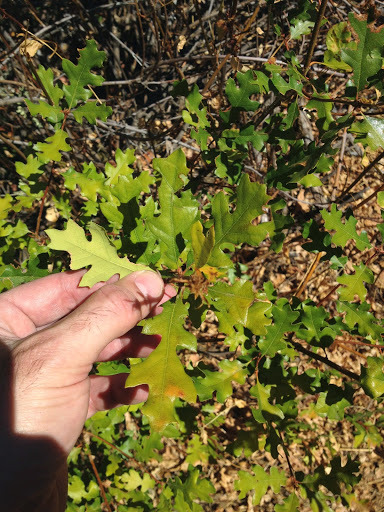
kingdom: Plantae
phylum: Tracheophyta
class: Magnoliopsida
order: Fagales
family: Fagaceae
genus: Quercus
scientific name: Quercus kelloggii
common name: California black oak
